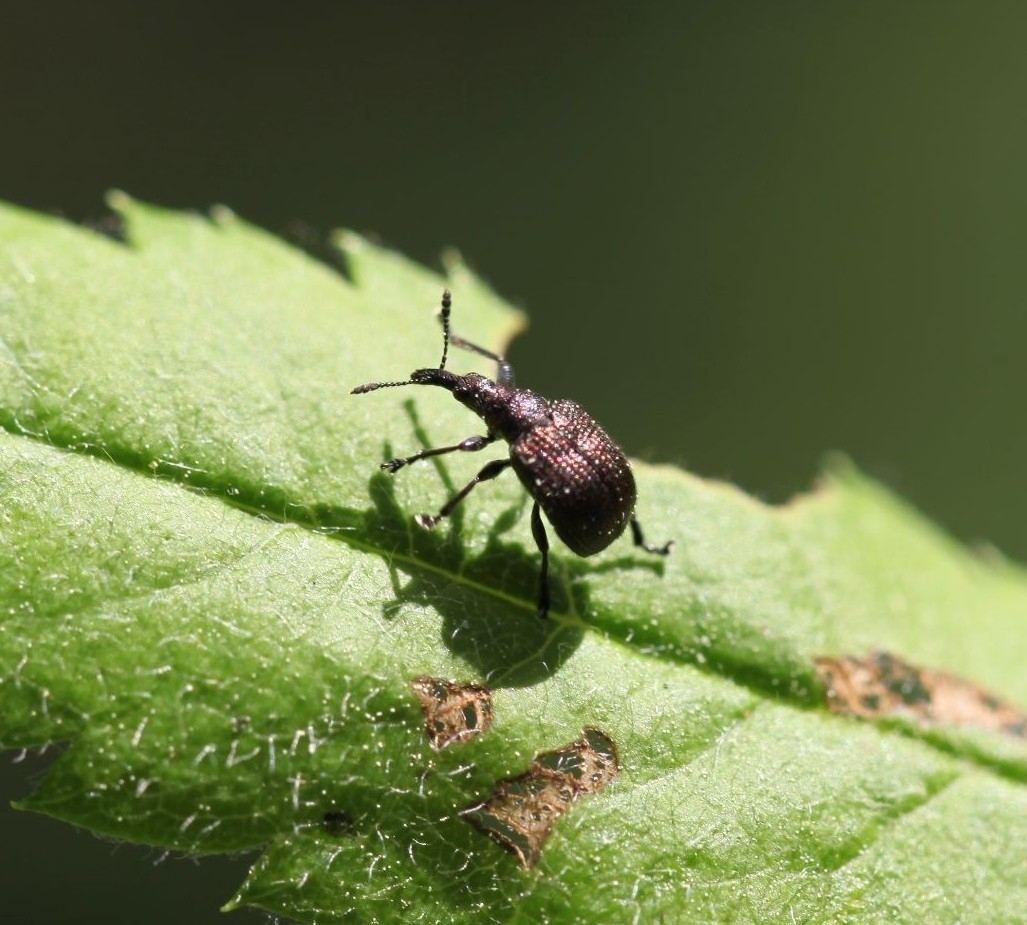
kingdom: Animalia
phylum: Arthropoda
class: Insecta
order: Coleoptera
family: Attelabidae
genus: Involvulus
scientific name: Involvulus cupreus
